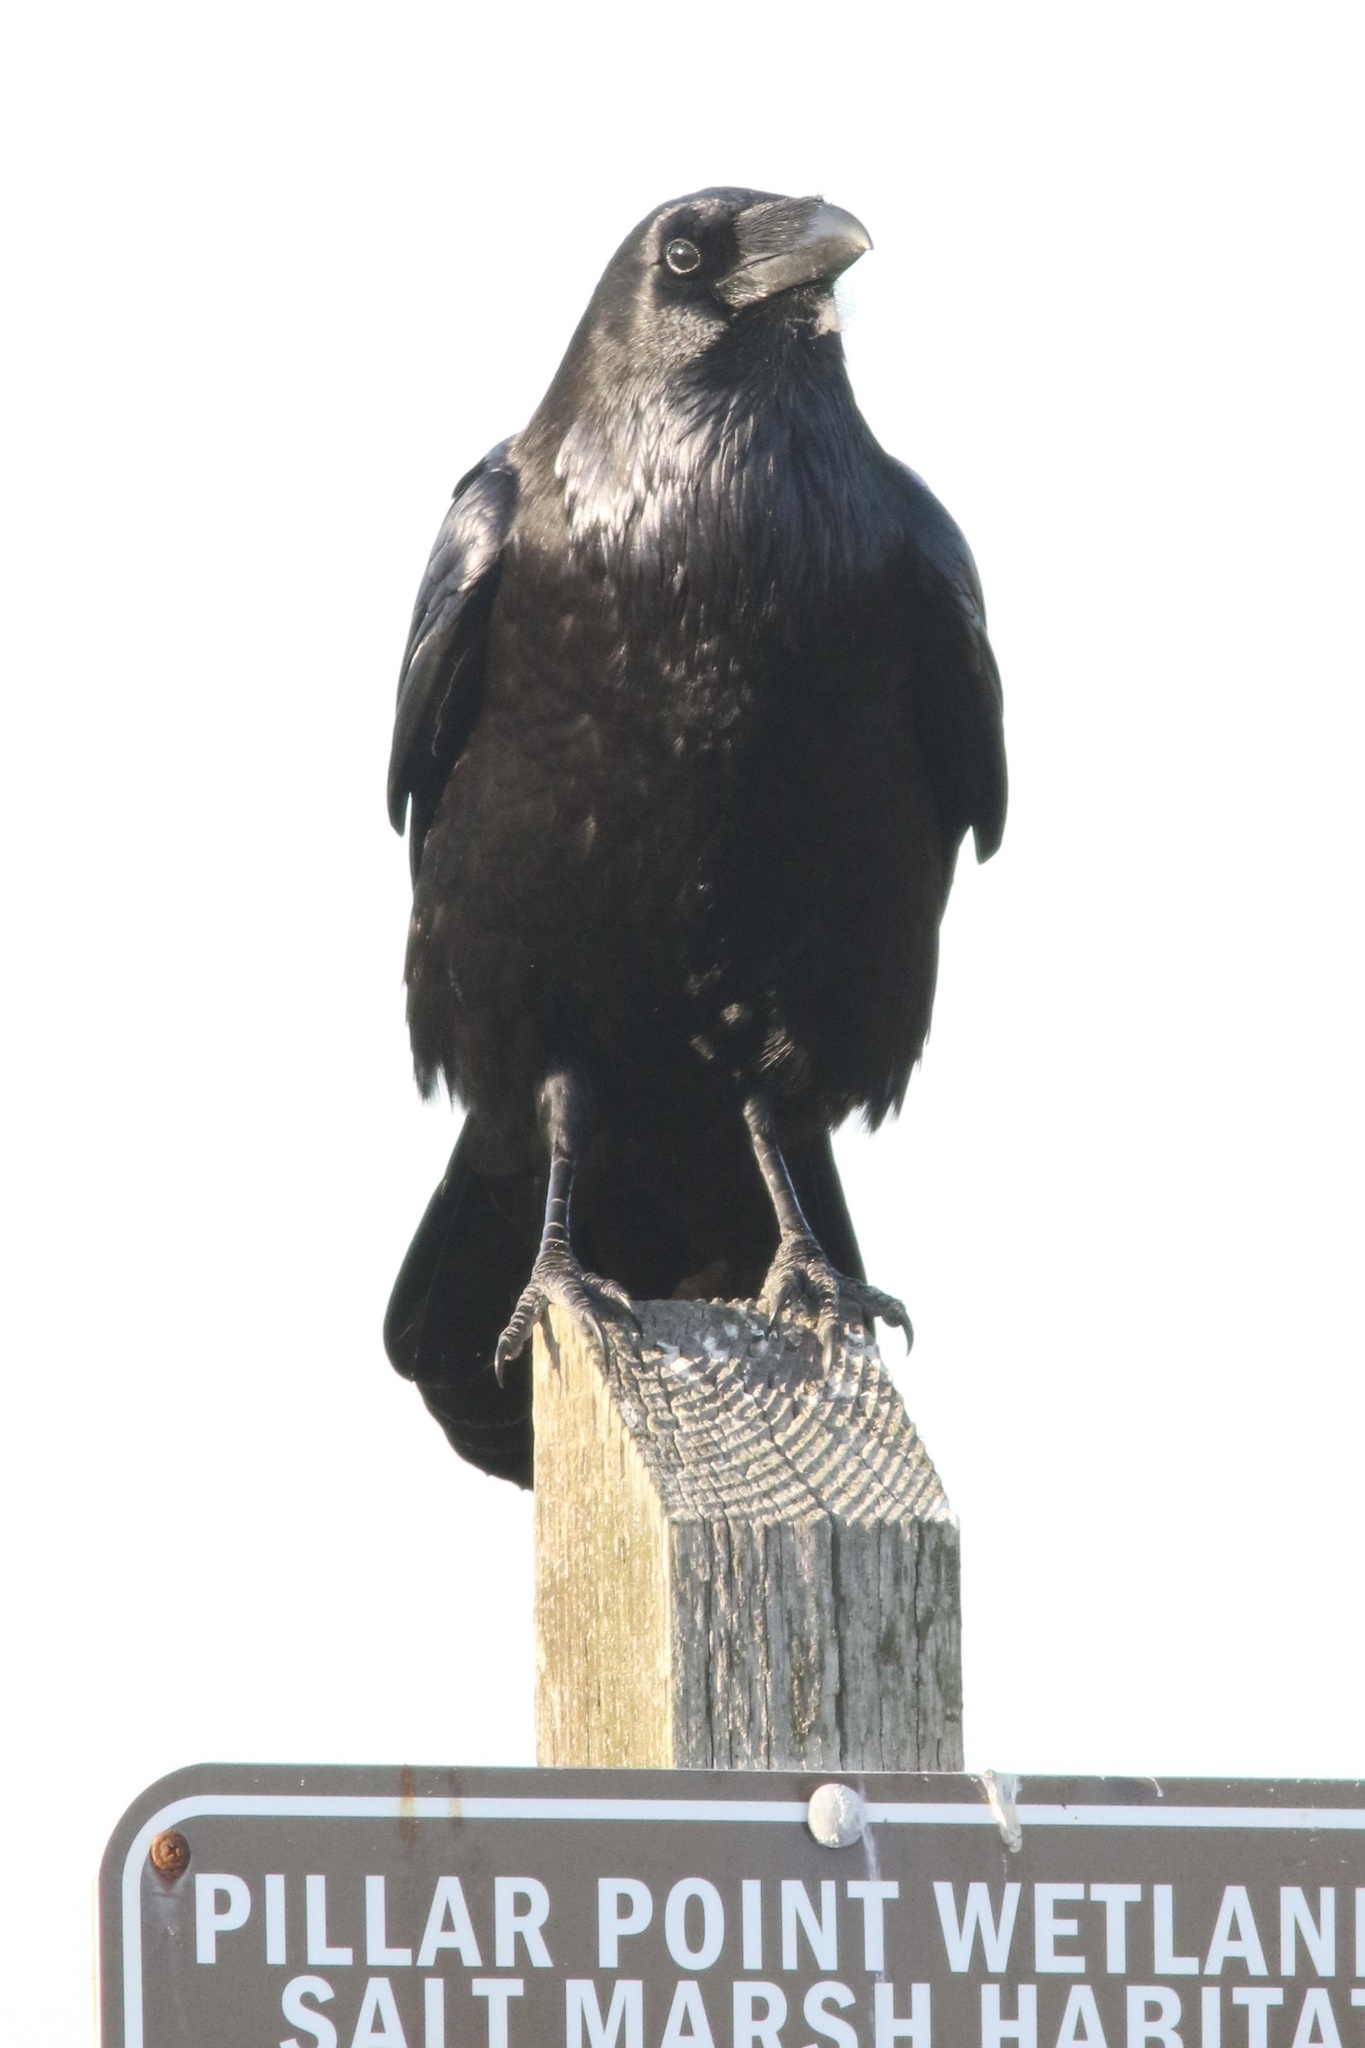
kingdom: Animalia
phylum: Chordata
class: Aves
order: Passeriformes
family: Corvidae
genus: Corvus
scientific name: Corvus corax
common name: Common raven
